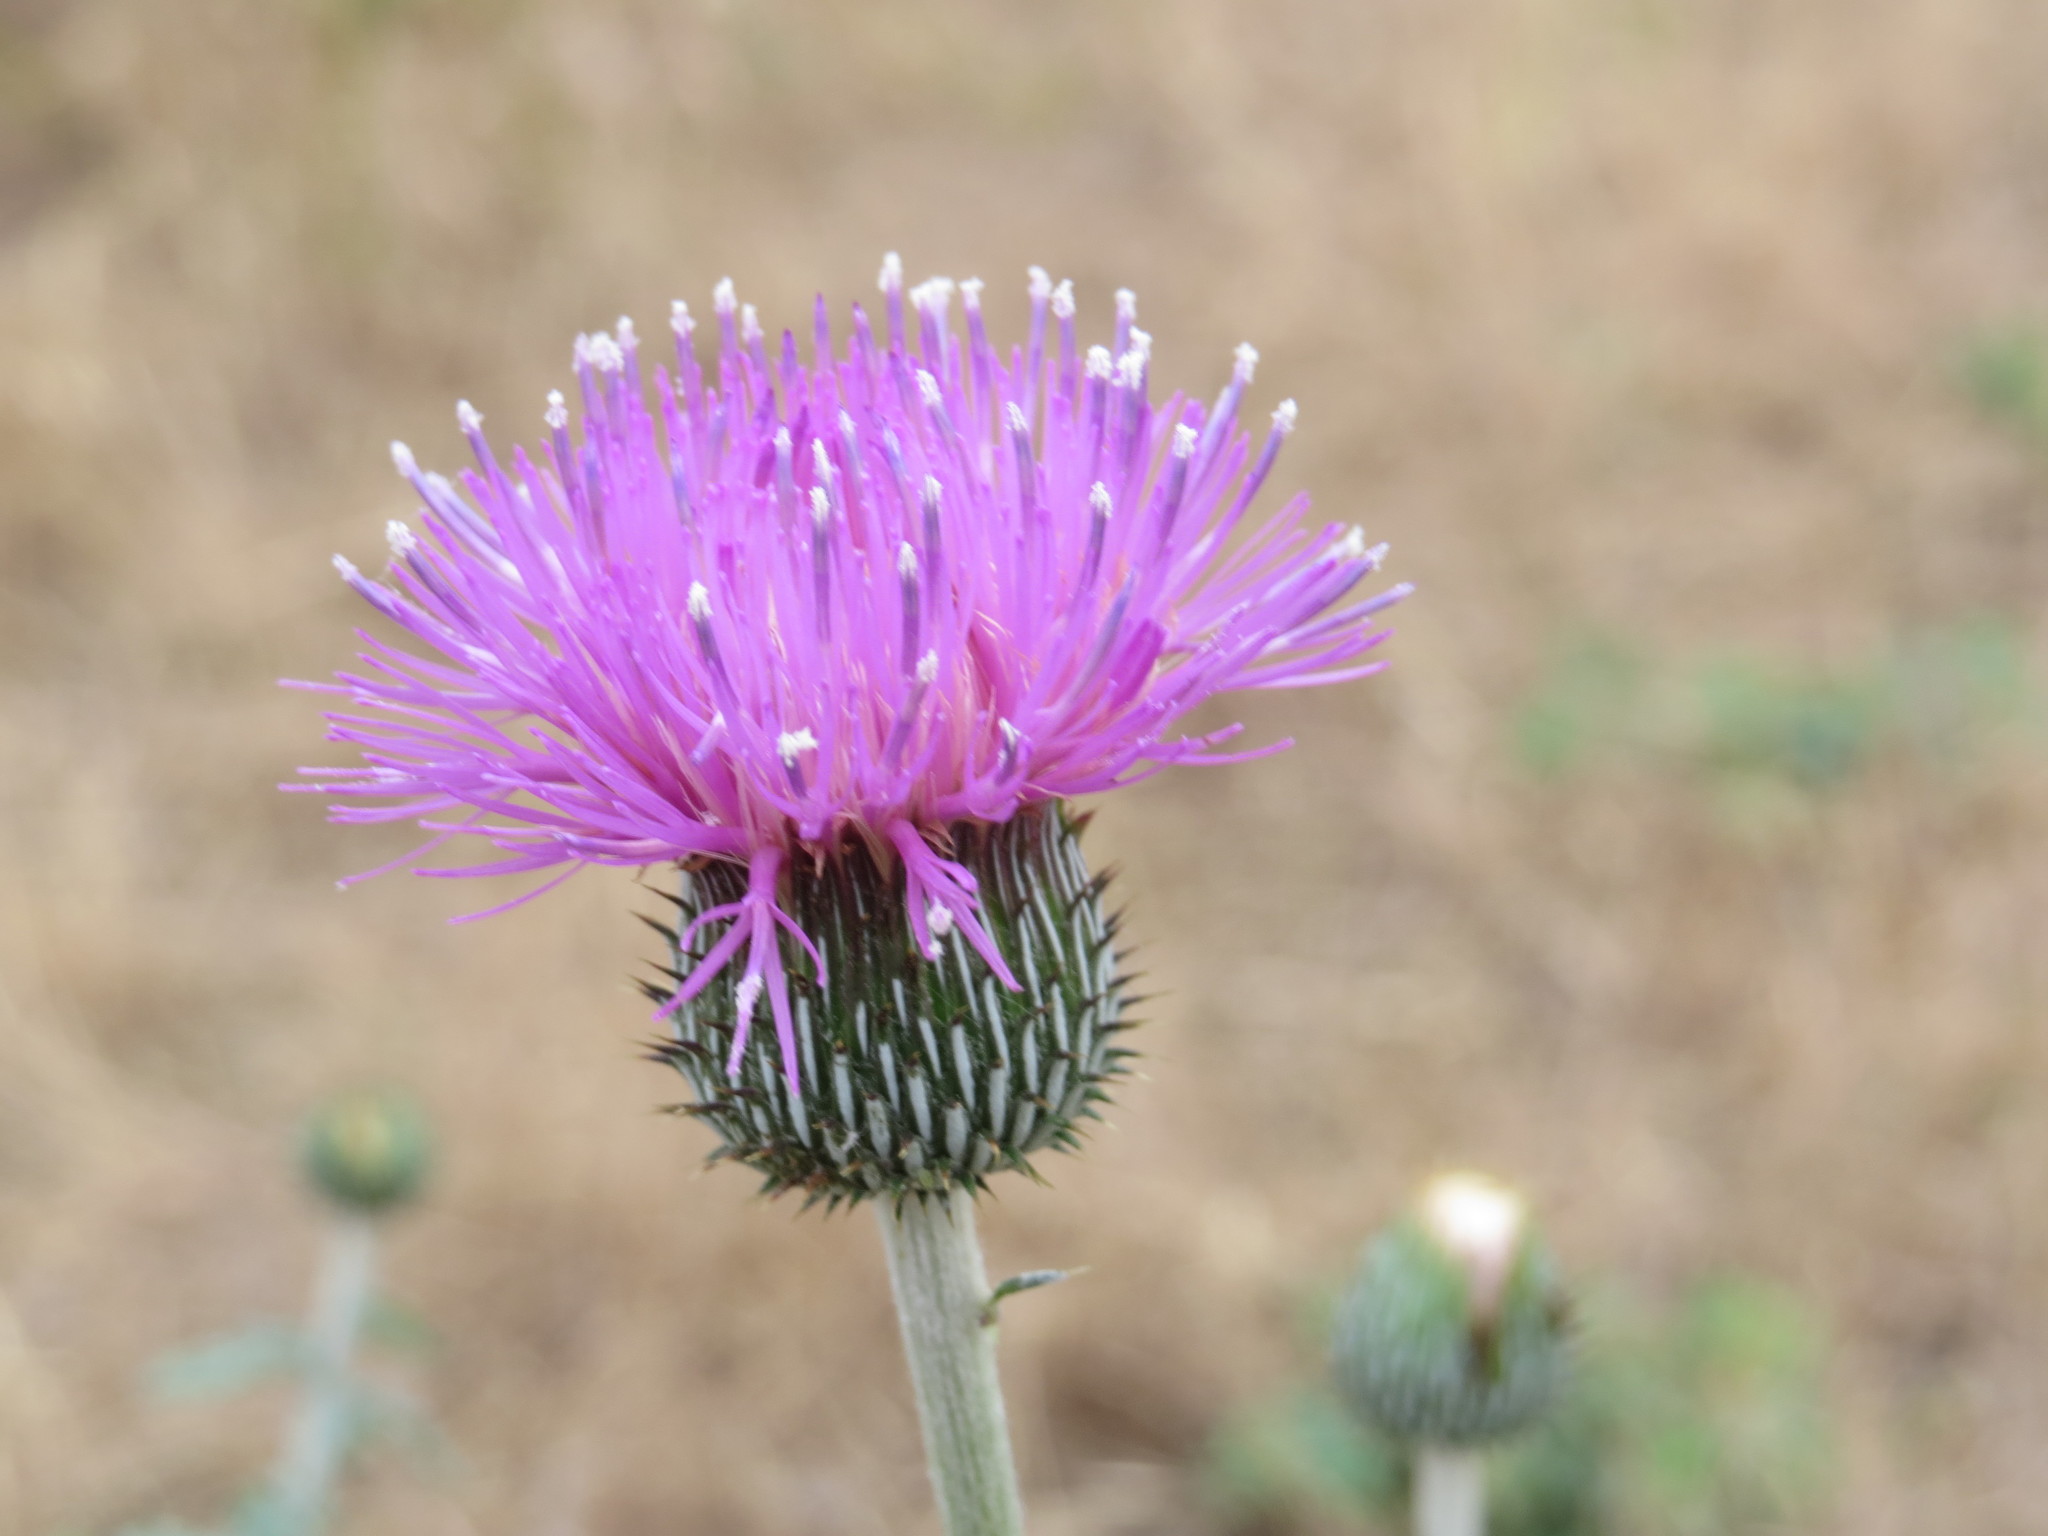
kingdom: Plantae
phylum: Tracheophyta
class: Magnoliopsida
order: Asterales
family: Asteraceae
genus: Cirsium
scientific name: Cirsium engelmannii
